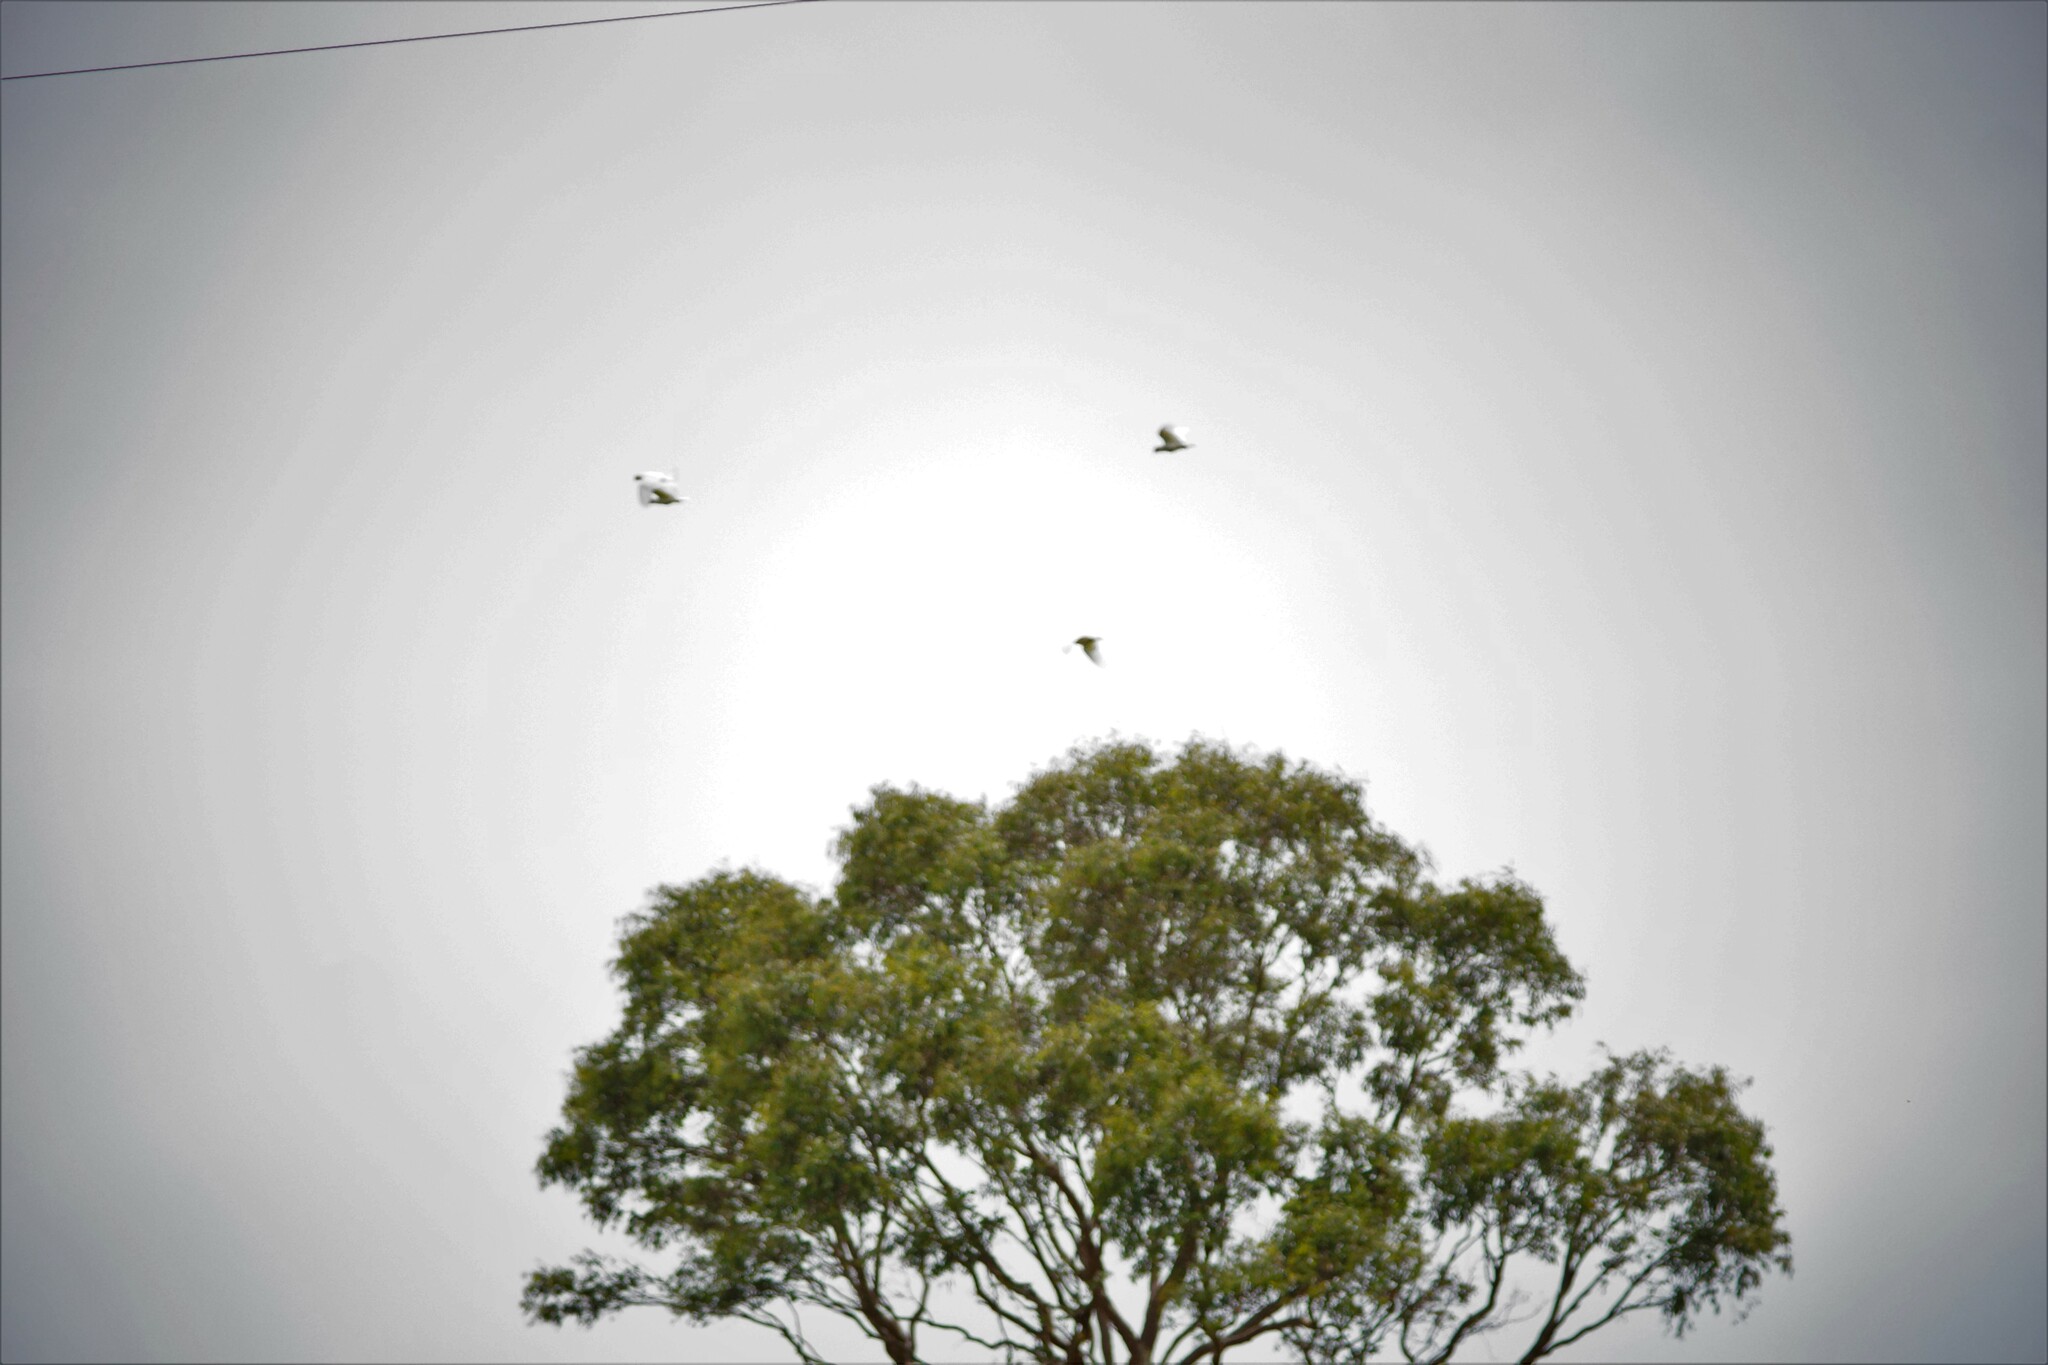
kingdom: Animalia
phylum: Chordata
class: Aves
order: Psittaciformes
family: Psittacidae
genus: Cacatua
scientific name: Cacatua galerita
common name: Sulphur-crested cockatoo
